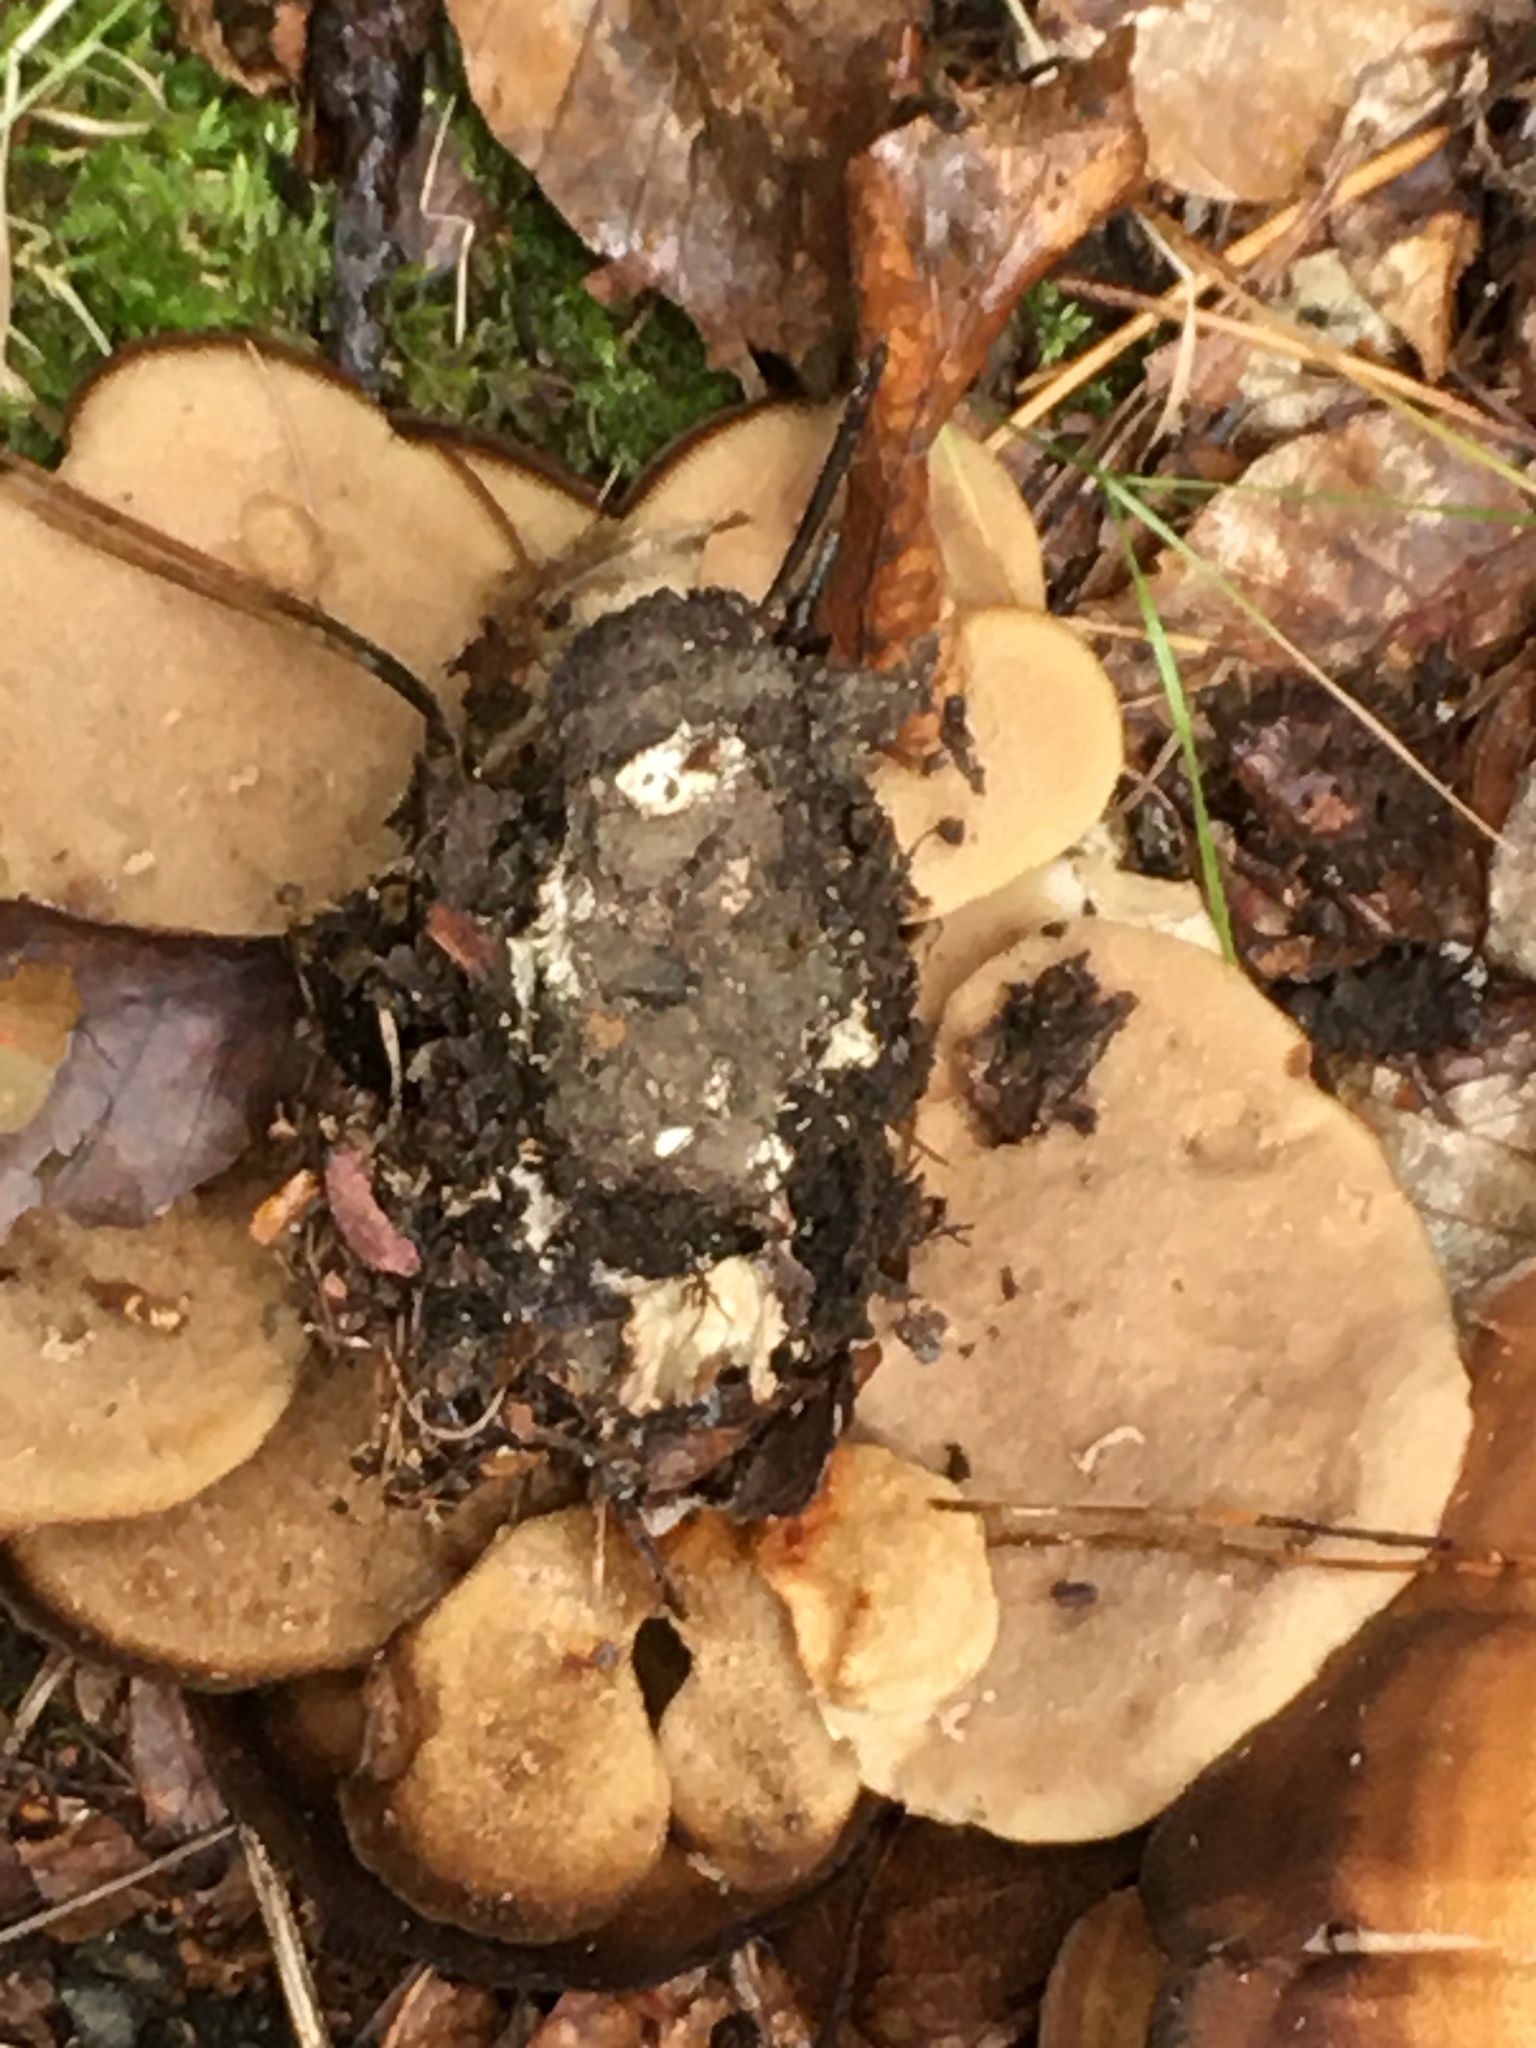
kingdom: Fungi
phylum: Basidiomycota
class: Agaricomycetes
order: Polyporales
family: Meripilaceae
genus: Meripilus
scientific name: Meripilus giganteus
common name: Giant polypore
